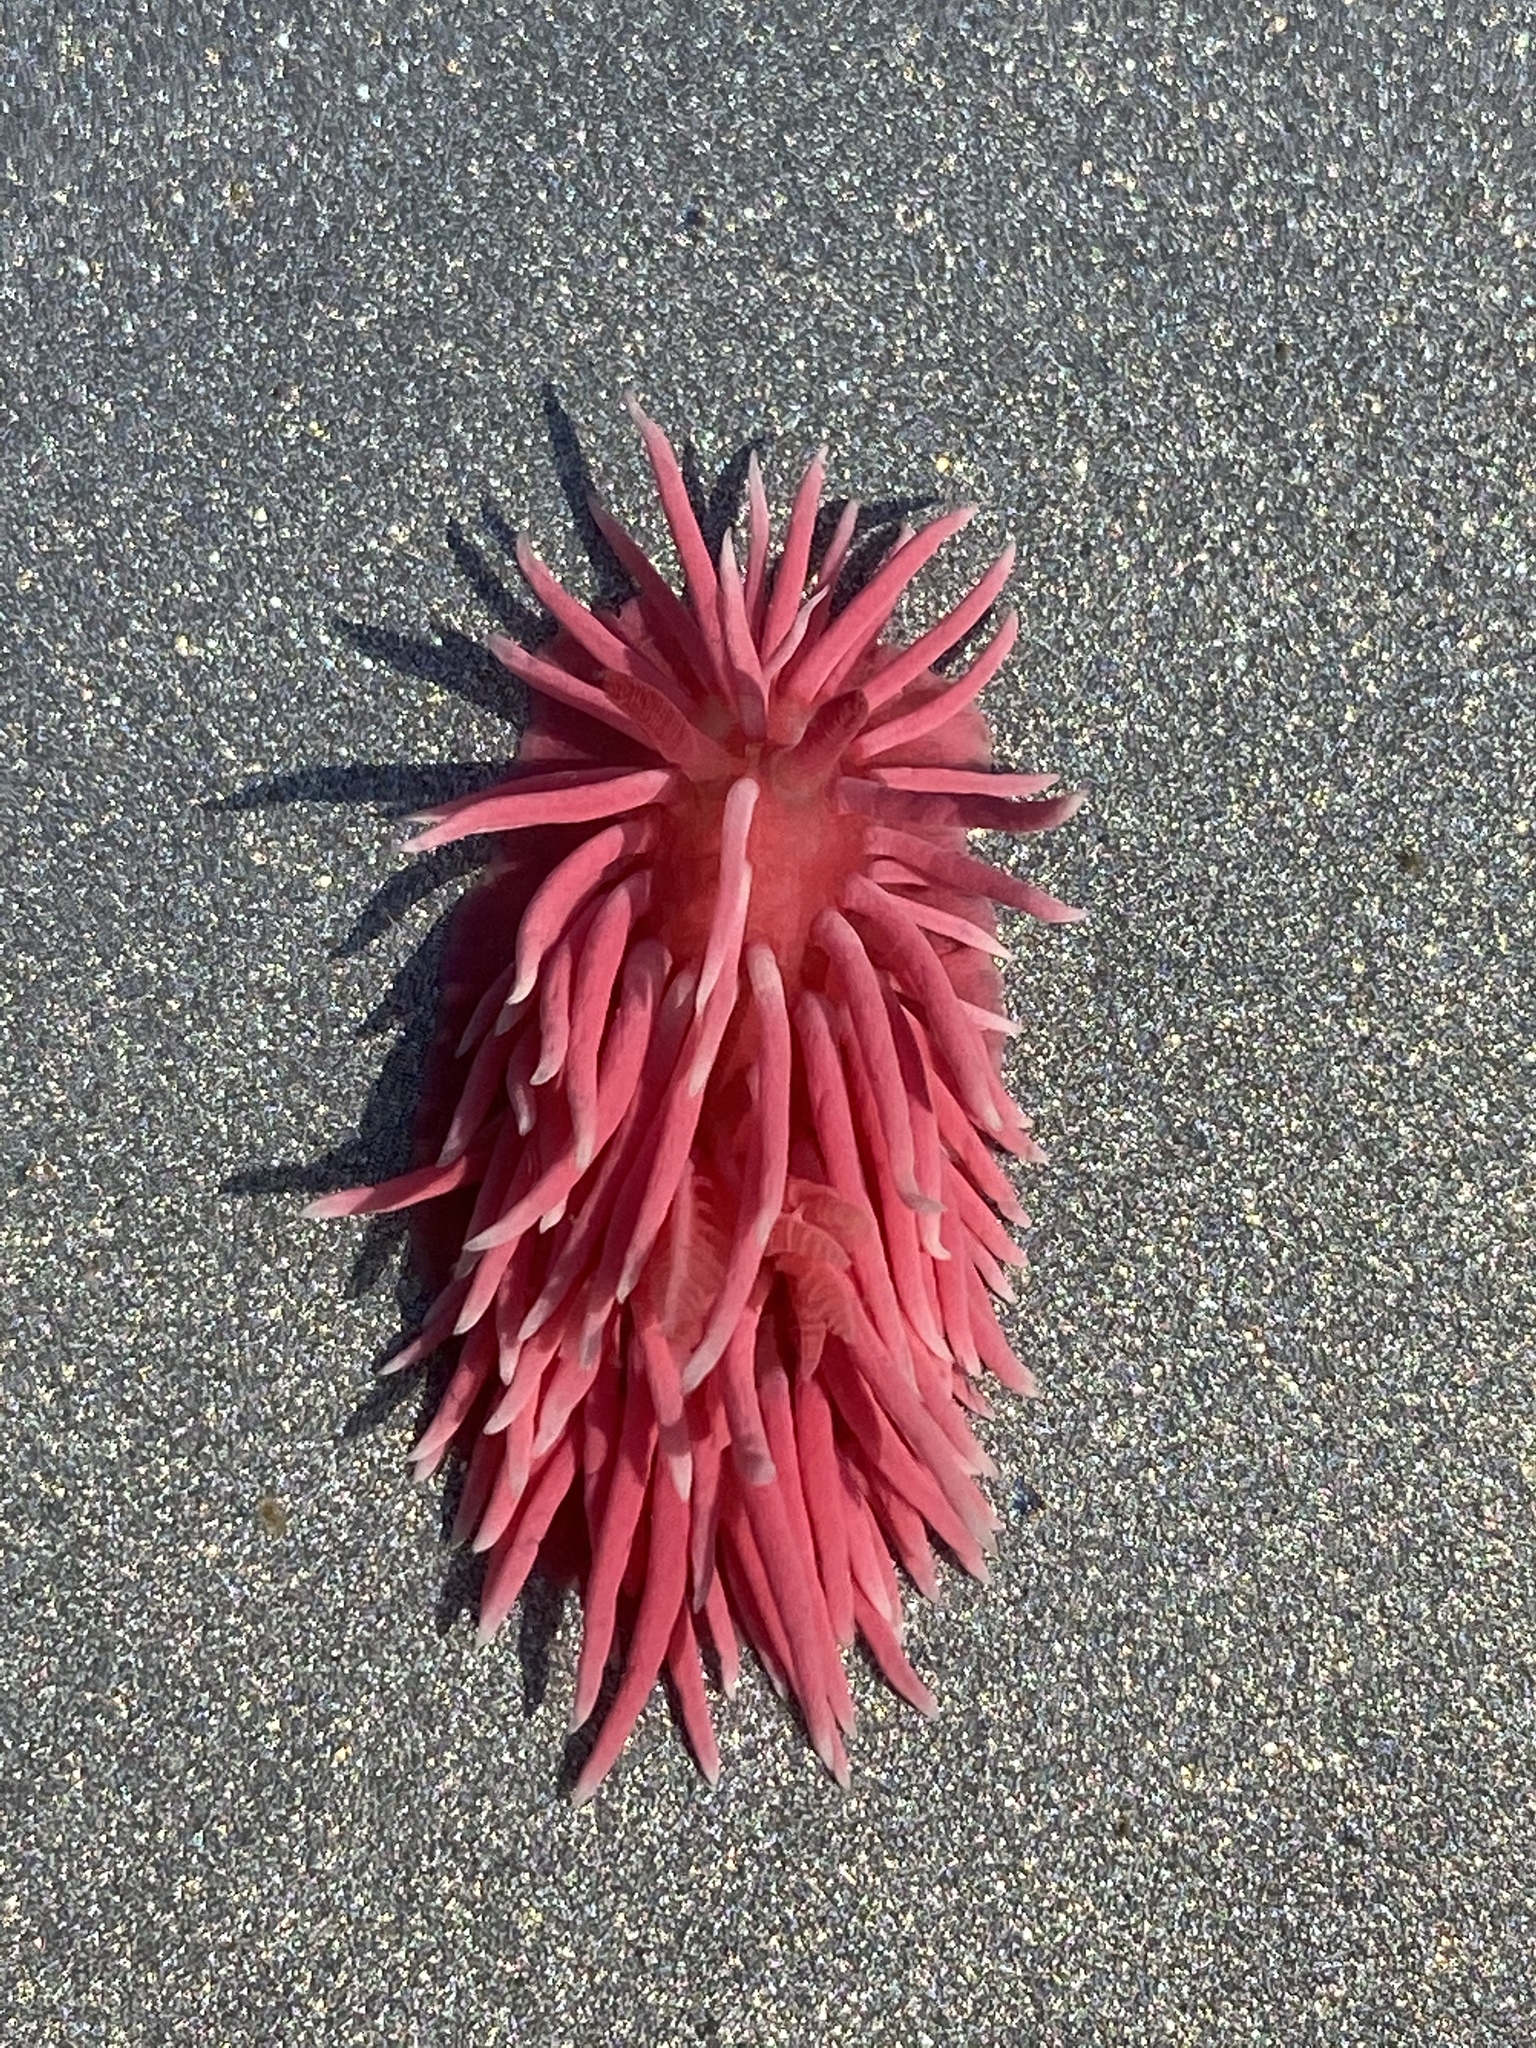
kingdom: Animalia
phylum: Mollusca
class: Gastropoda
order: Nudibranchia
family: Goniodorididae
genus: Okenia
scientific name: Okenia
